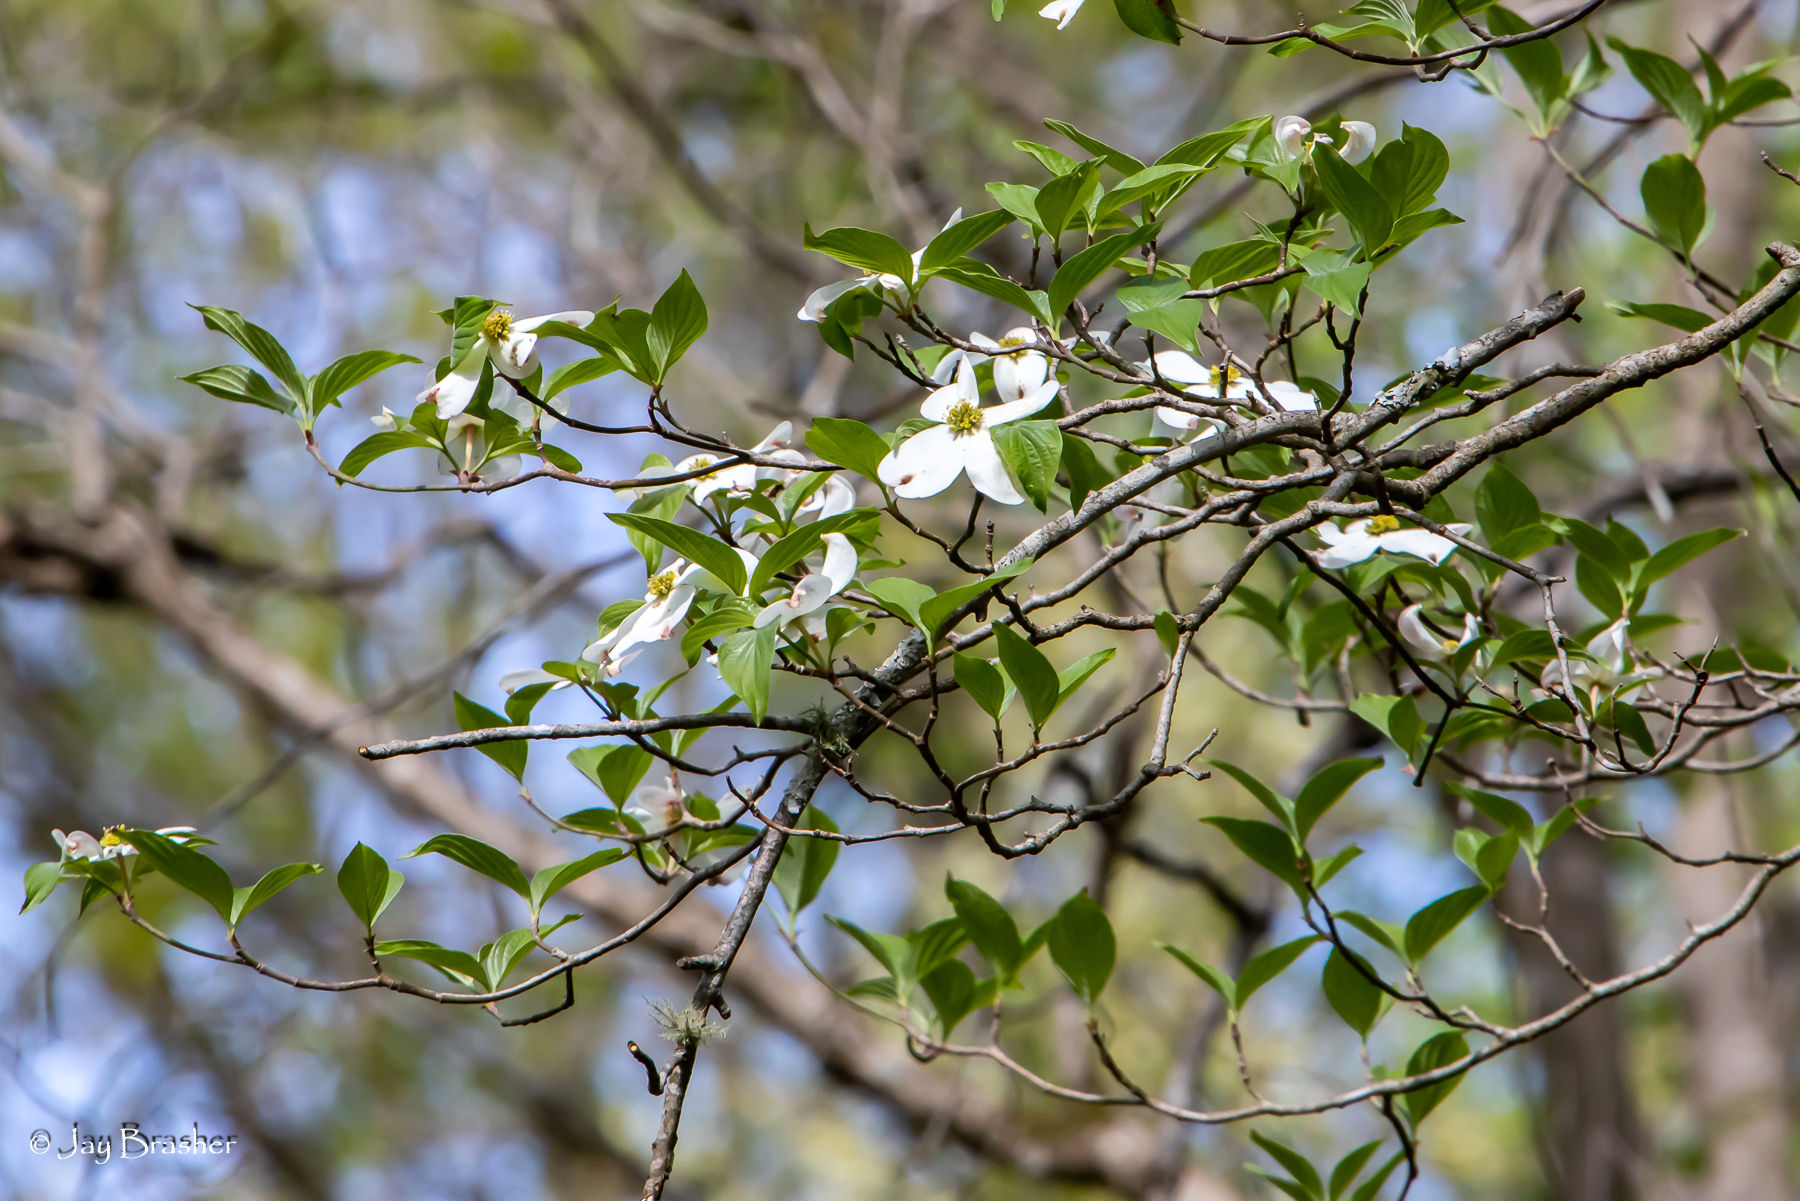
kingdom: Plantae
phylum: Tracheophyta
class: Magnoliopsida
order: Cornales
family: Cornaceae
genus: Cornus
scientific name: Cornus florida
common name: Flowering dogwood
